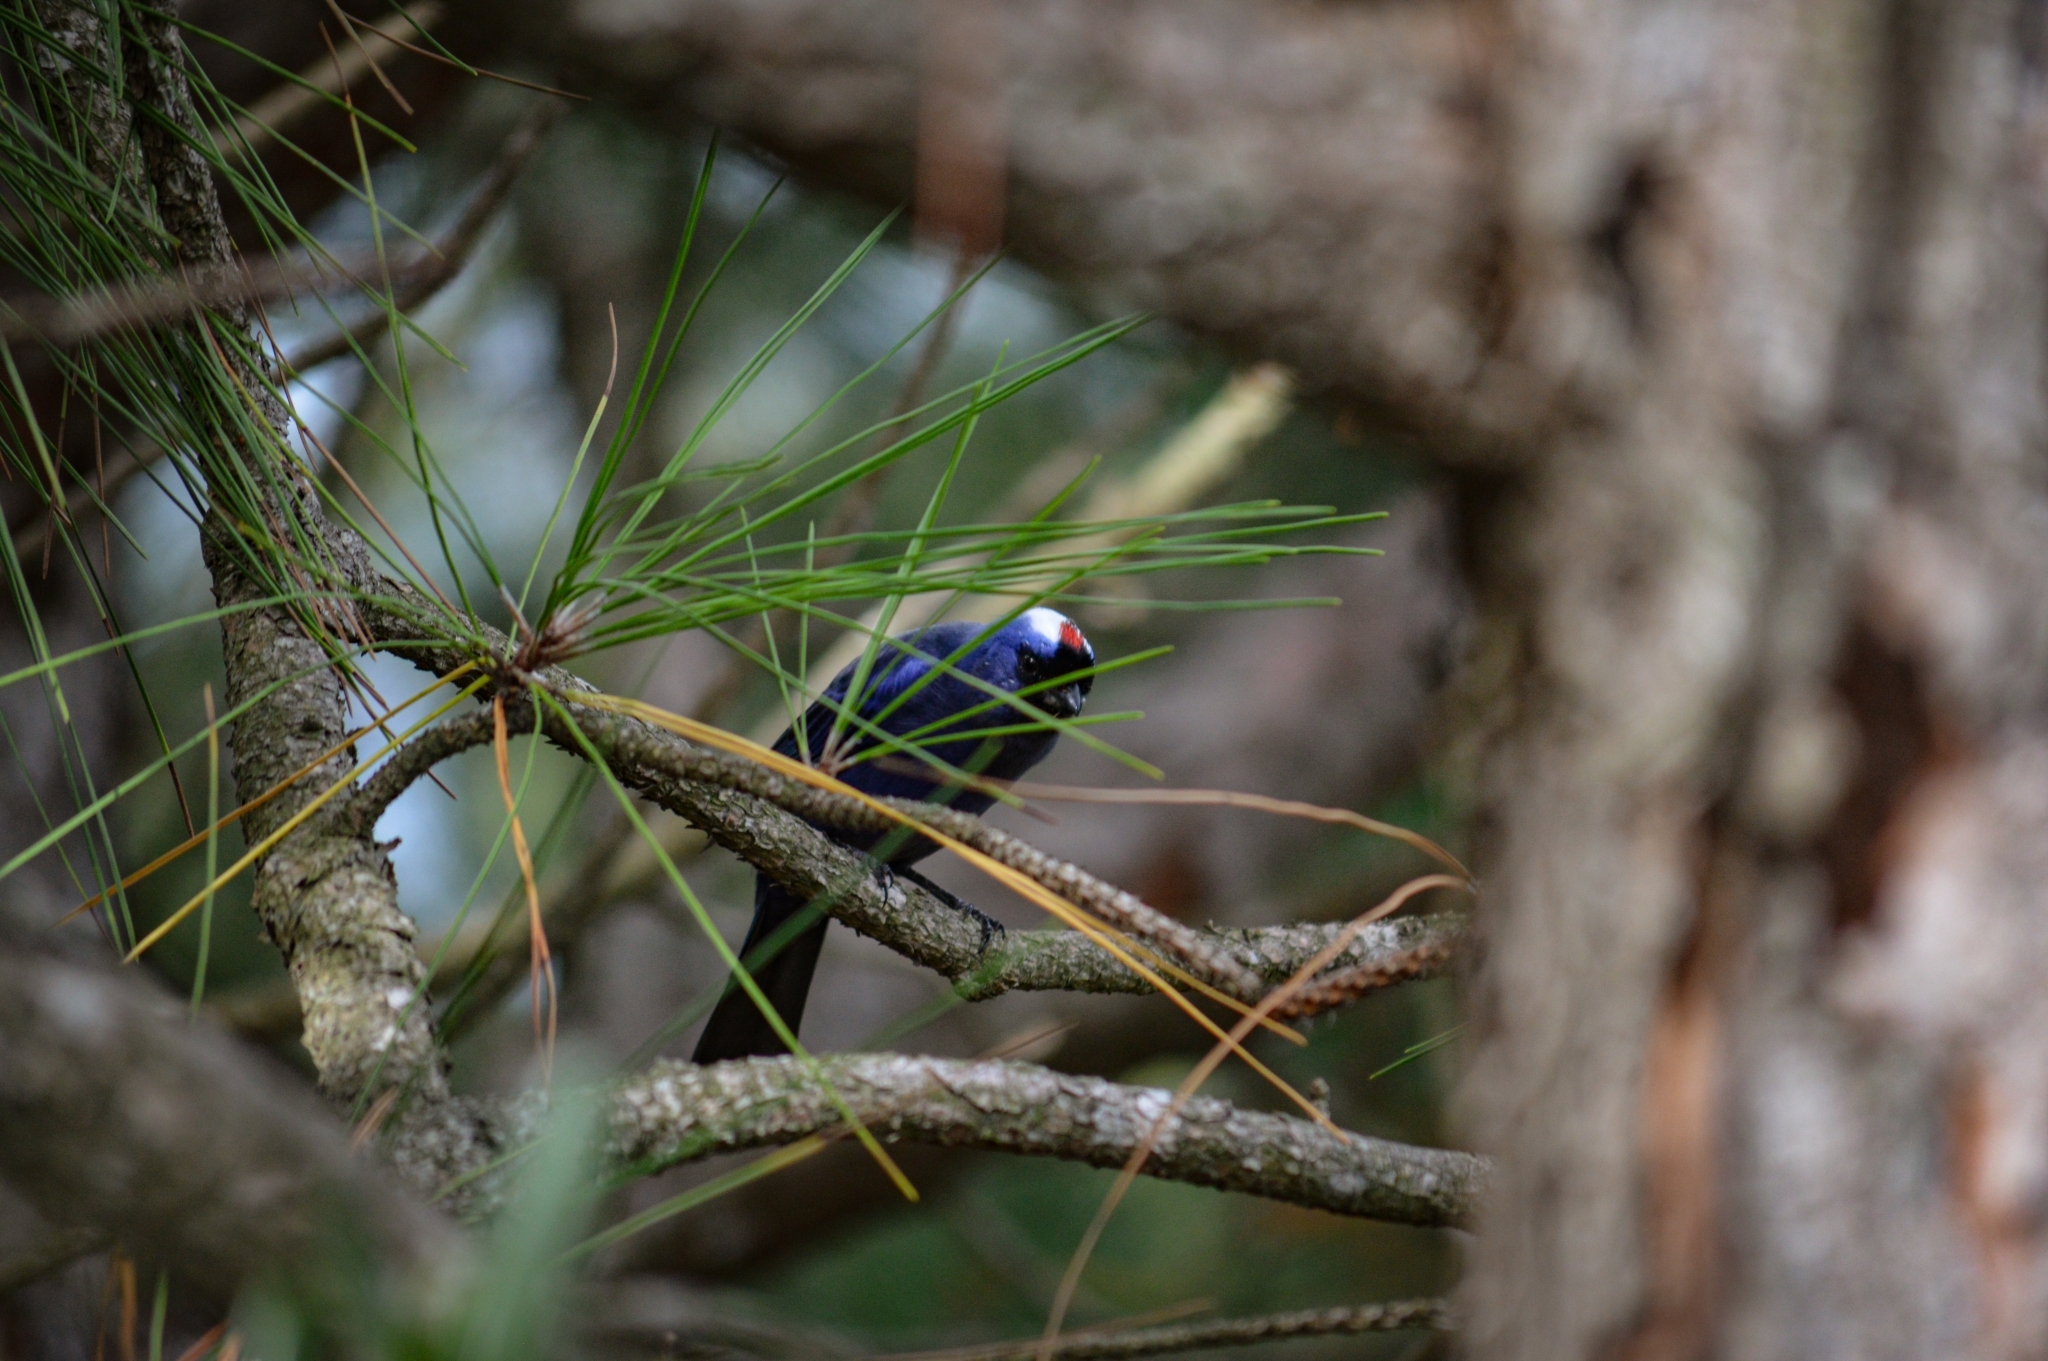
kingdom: Animalia
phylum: Chordata
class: Aves
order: Passeriformes
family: Thraupidae
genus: Stephanophorus
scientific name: Stephanophorus diadematus
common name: Diademed tanager
